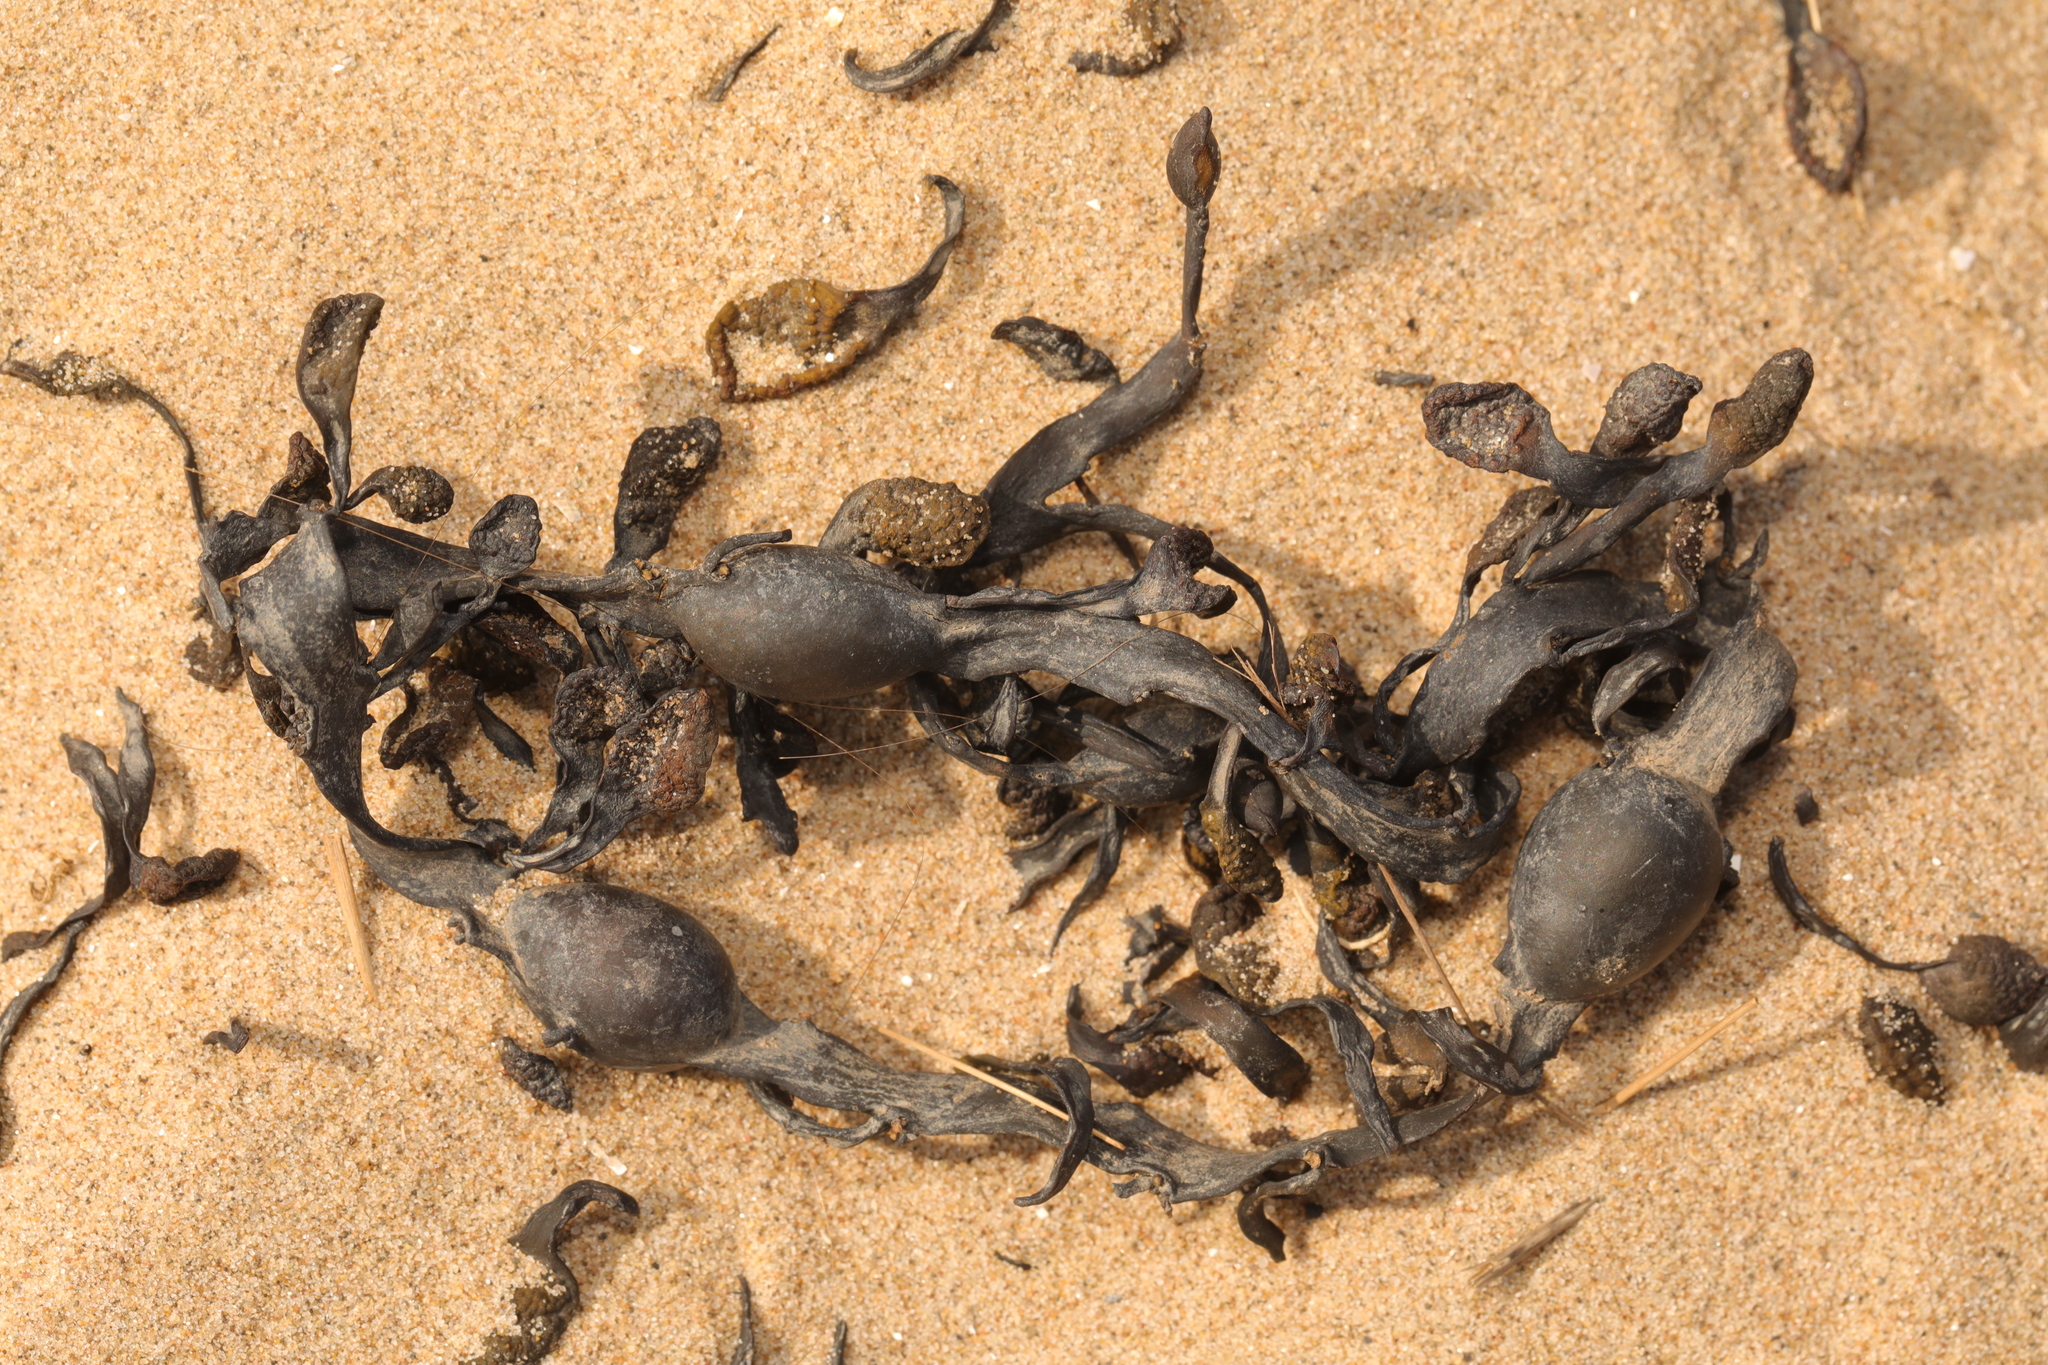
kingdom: Chromista
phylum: Ochrophyta
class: Phaeophyceae
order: Fucales
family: Fucaceae
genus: Ascophyllum
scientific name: Ascophyllum nodosum
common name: Knotted wrack
